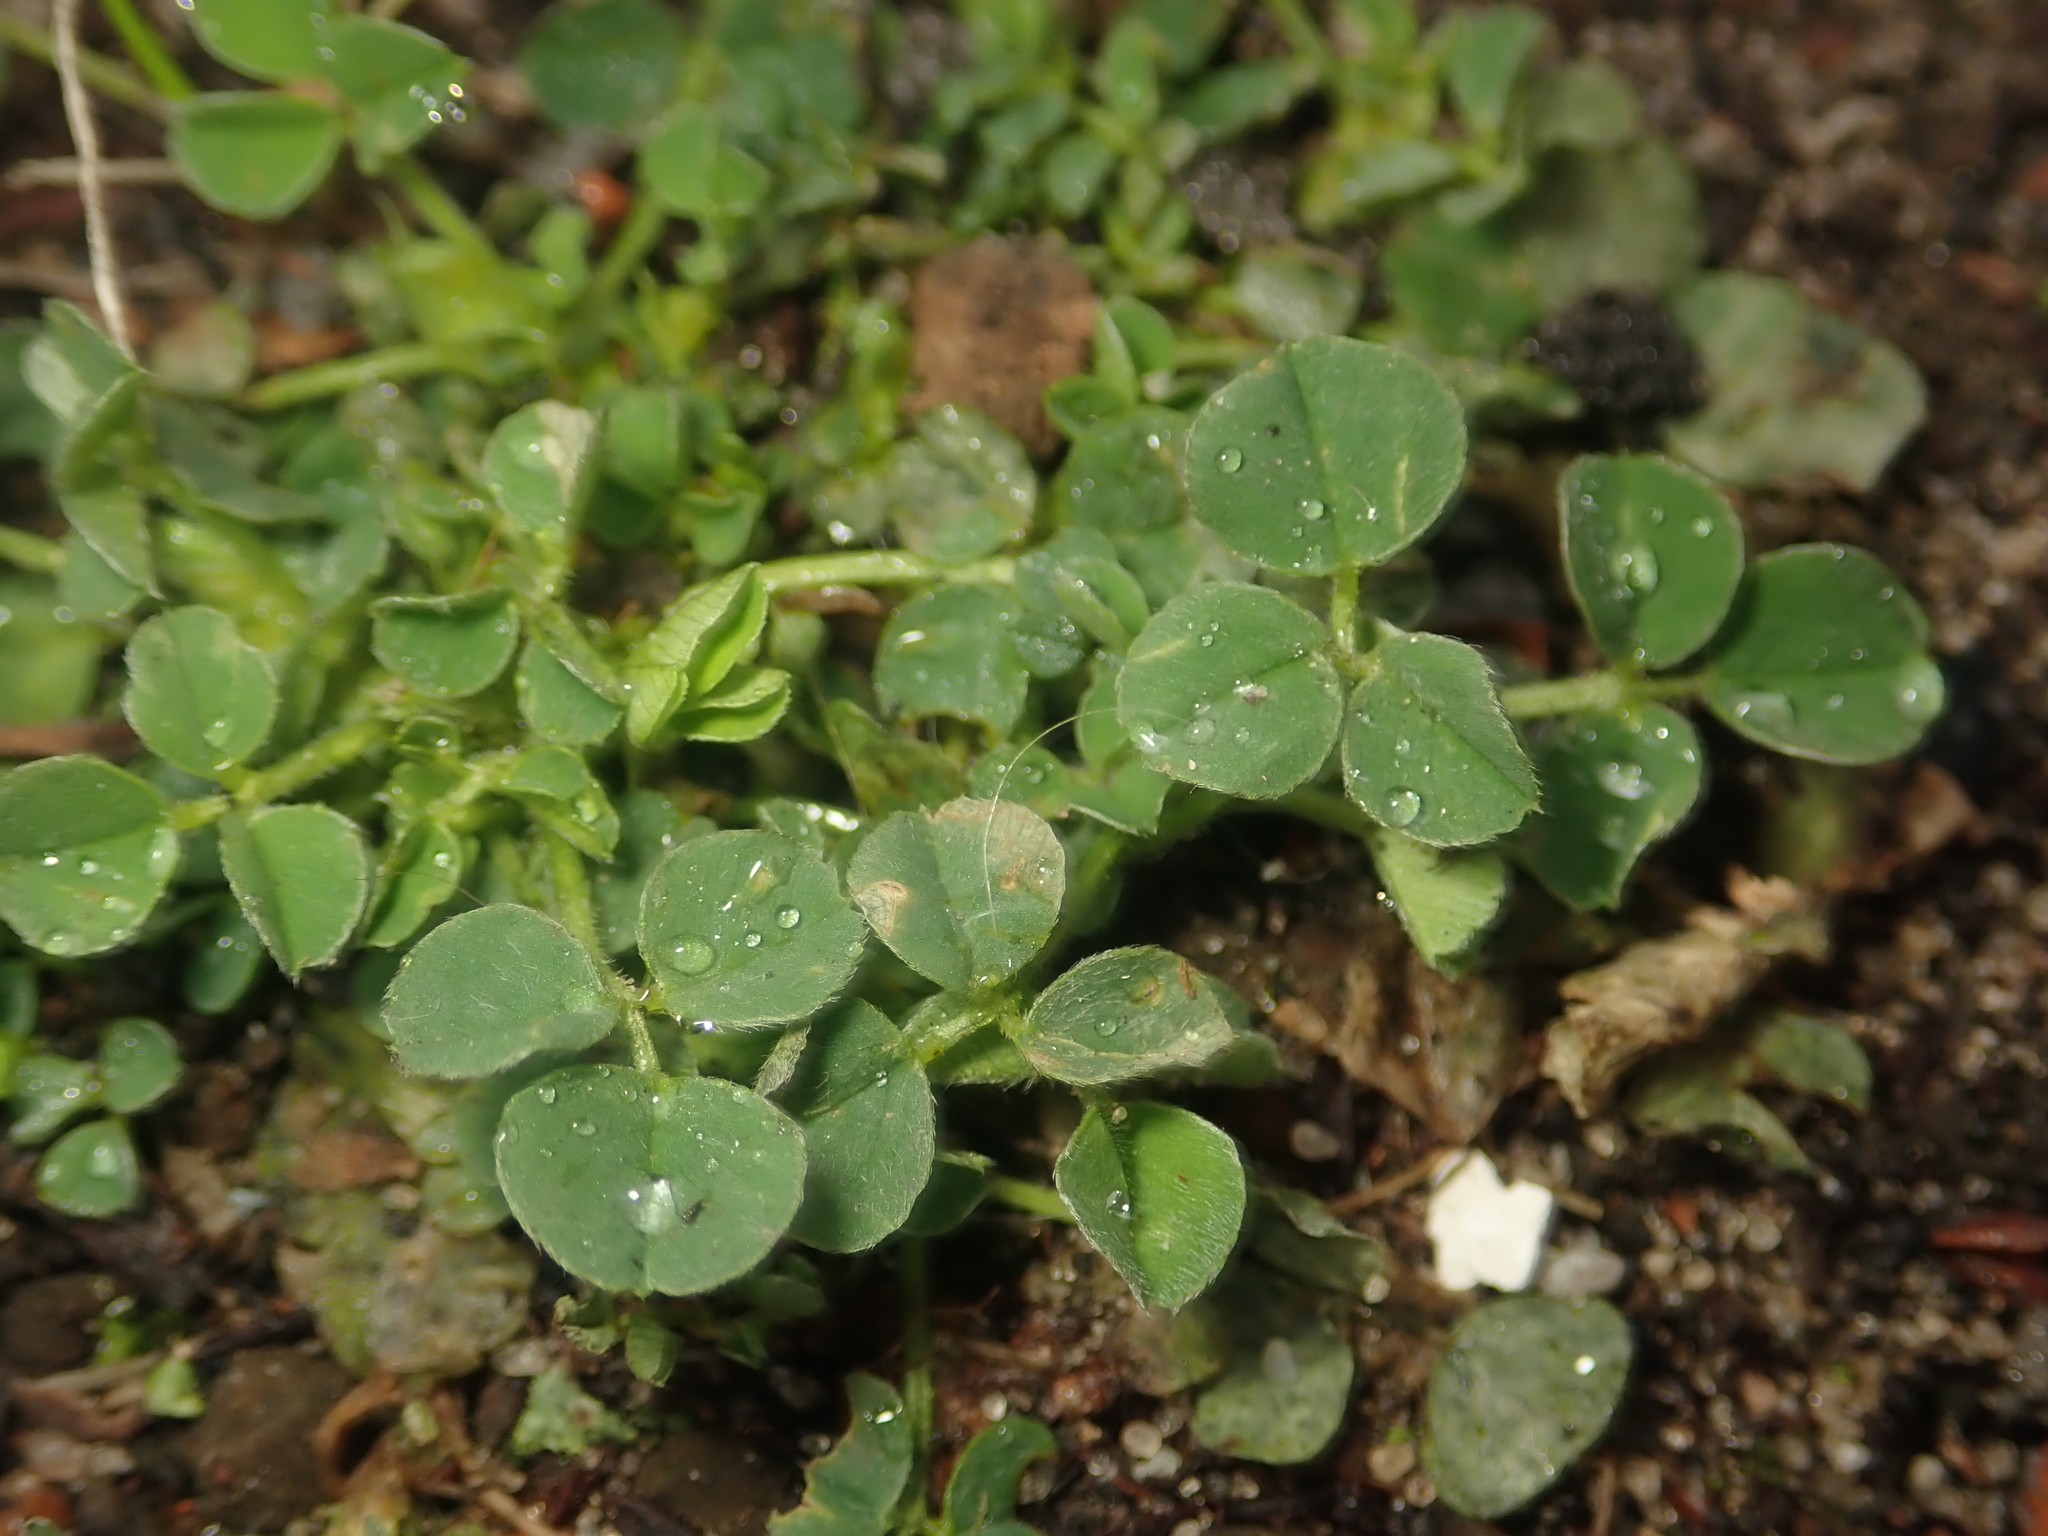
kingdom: Plantae
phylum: Tracheophyta
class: Magnoliopsida
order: Fabales
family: Fabaceae
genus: Medicago
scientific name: Medicago lupulina
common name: Black medick
